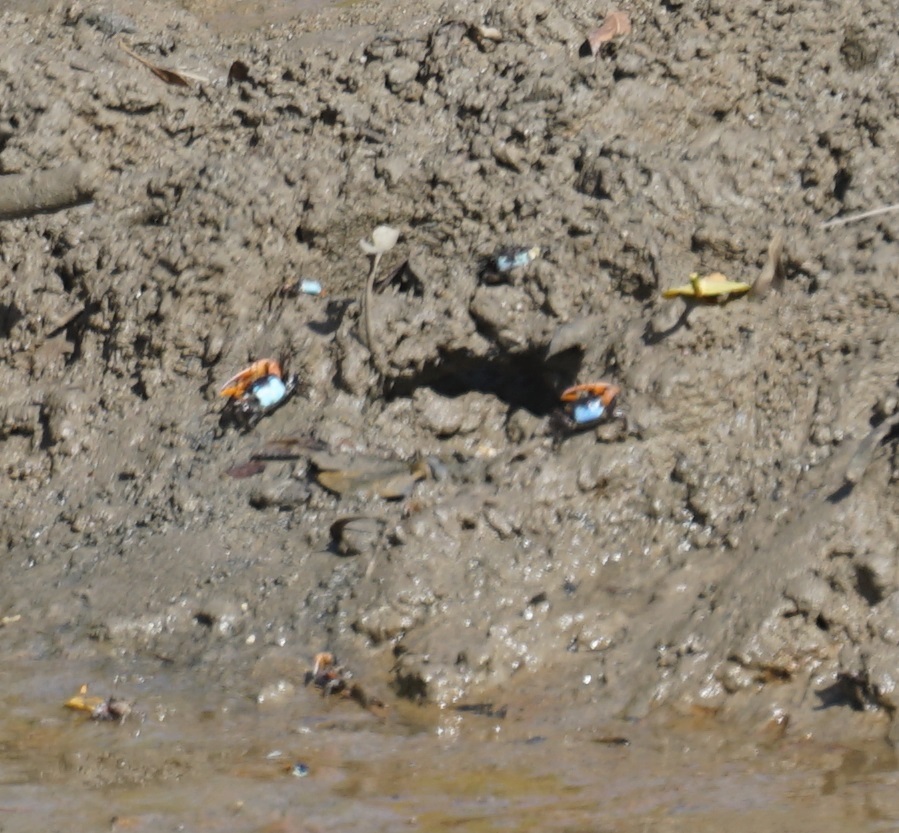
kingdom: Animalia
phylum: Arthropoda
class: Malacostraca
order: Decapoda
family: Ocypodidae
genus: Gelasimus
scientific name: Gelasimus vomeris
